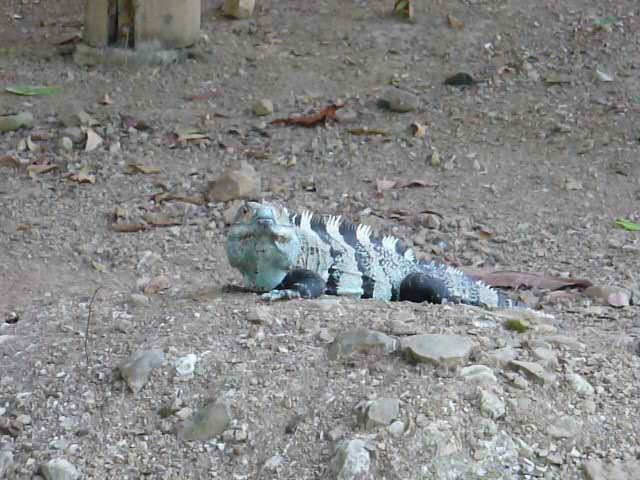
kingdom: Animalia
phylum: Chordata
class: Squamata
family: Iguanidae
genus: Ctenosaura
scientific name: Ctenosaura similis
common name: Black spiny-tailed iguana
